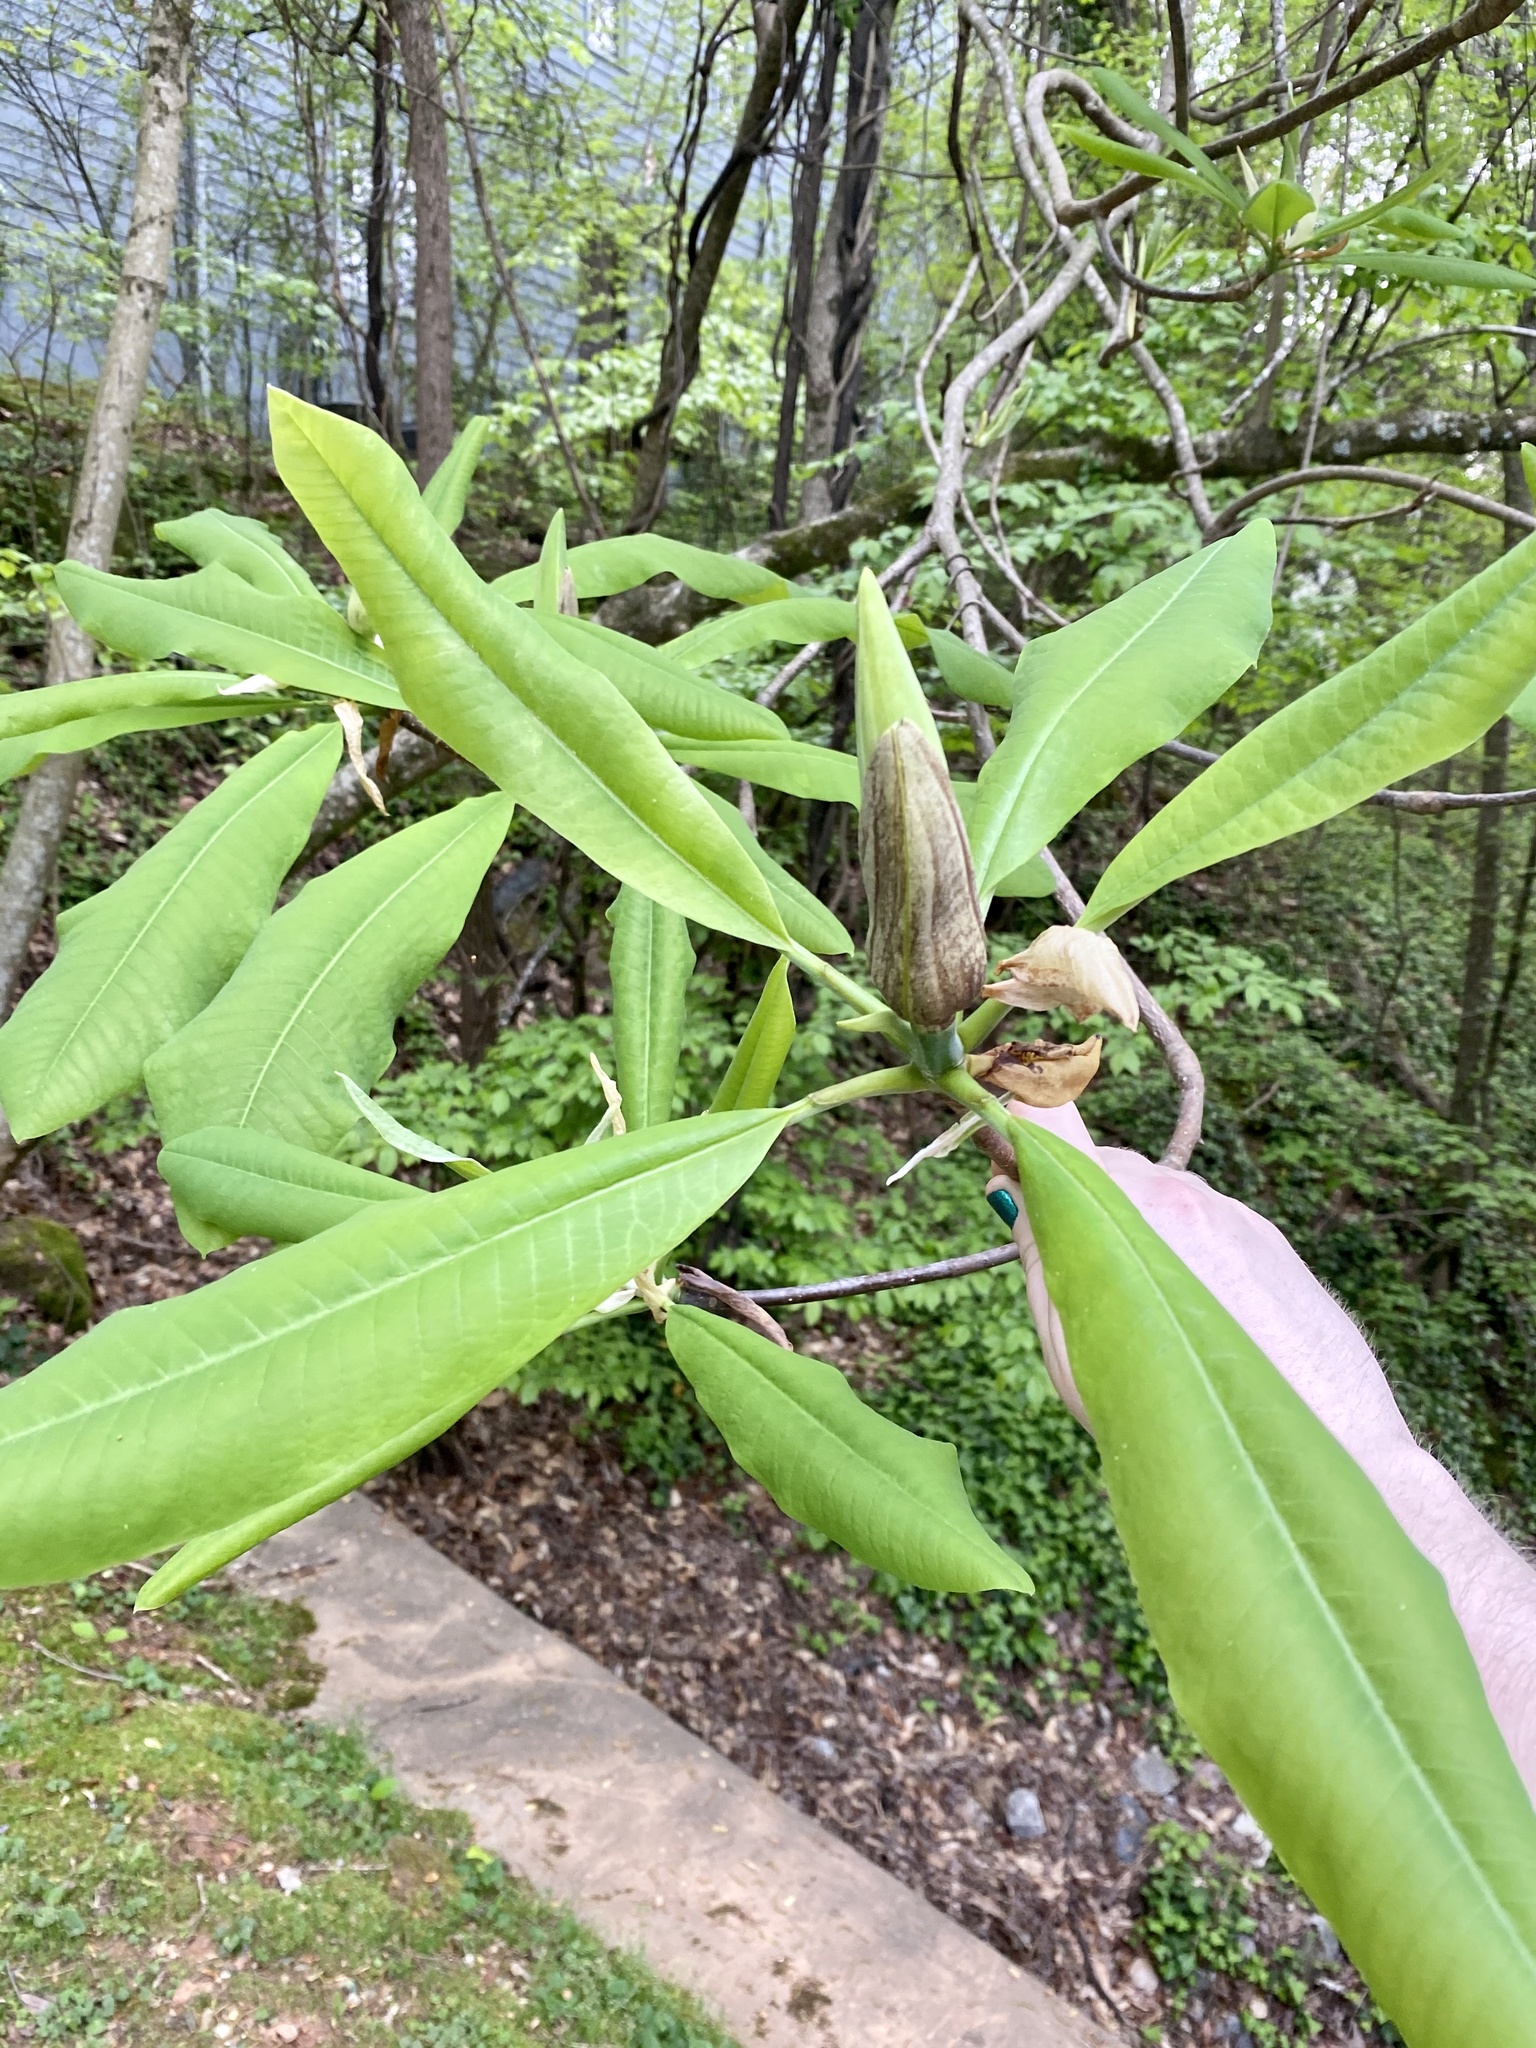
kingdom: Plantae
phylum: Tracheophyta
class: Magnoliopsida
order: Magnoliales
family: Magnoliaceae
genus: Magnolia
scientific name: Magnolia tripetala
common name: Umbrella magnolia
